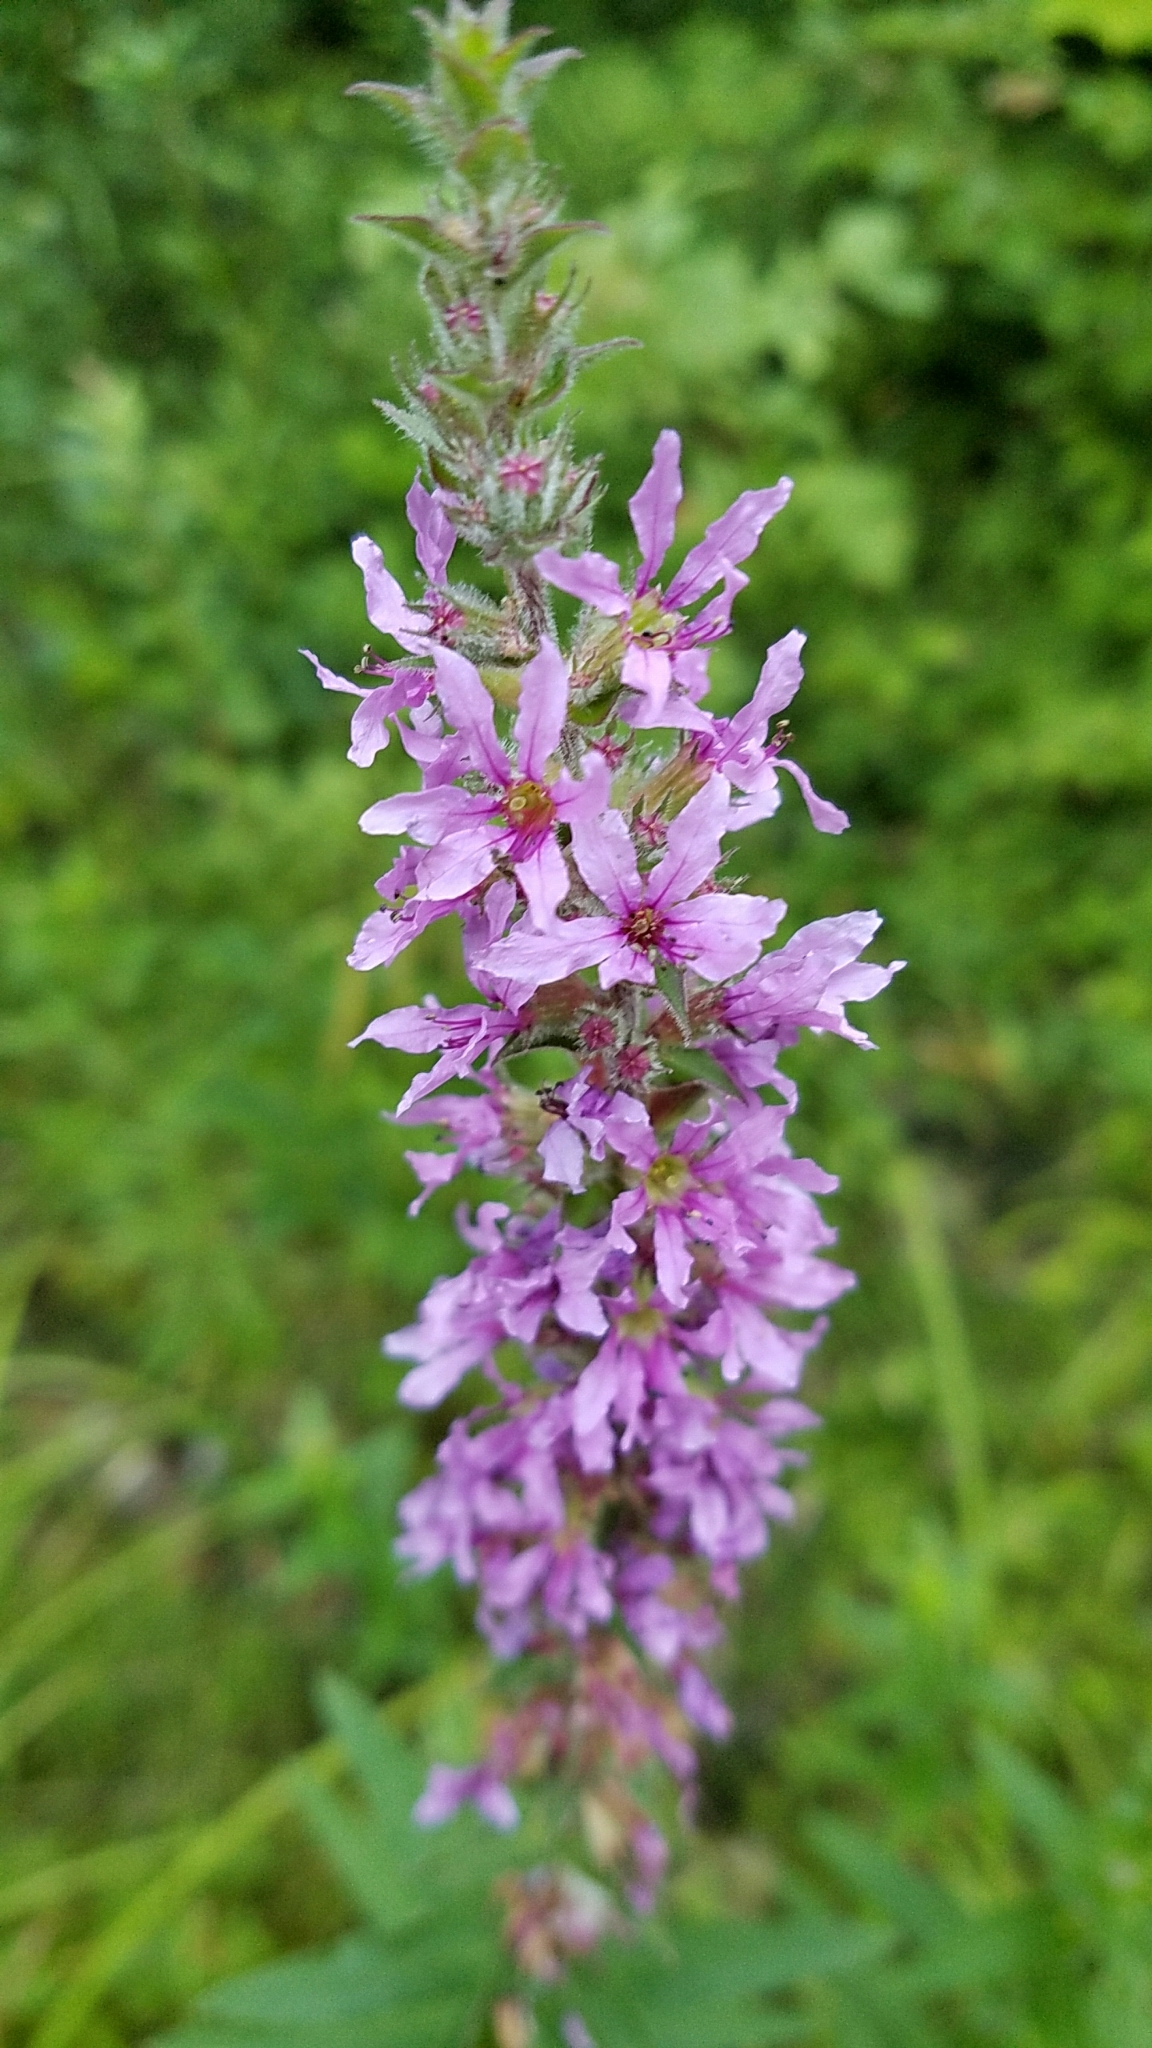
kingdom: Plantae
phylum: Tracheophyta
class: Magnoliopsida
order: Myrtales
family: Lythraceae
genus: Lythrum
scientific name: Lythrum salicaria
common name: Purple loosestrife
